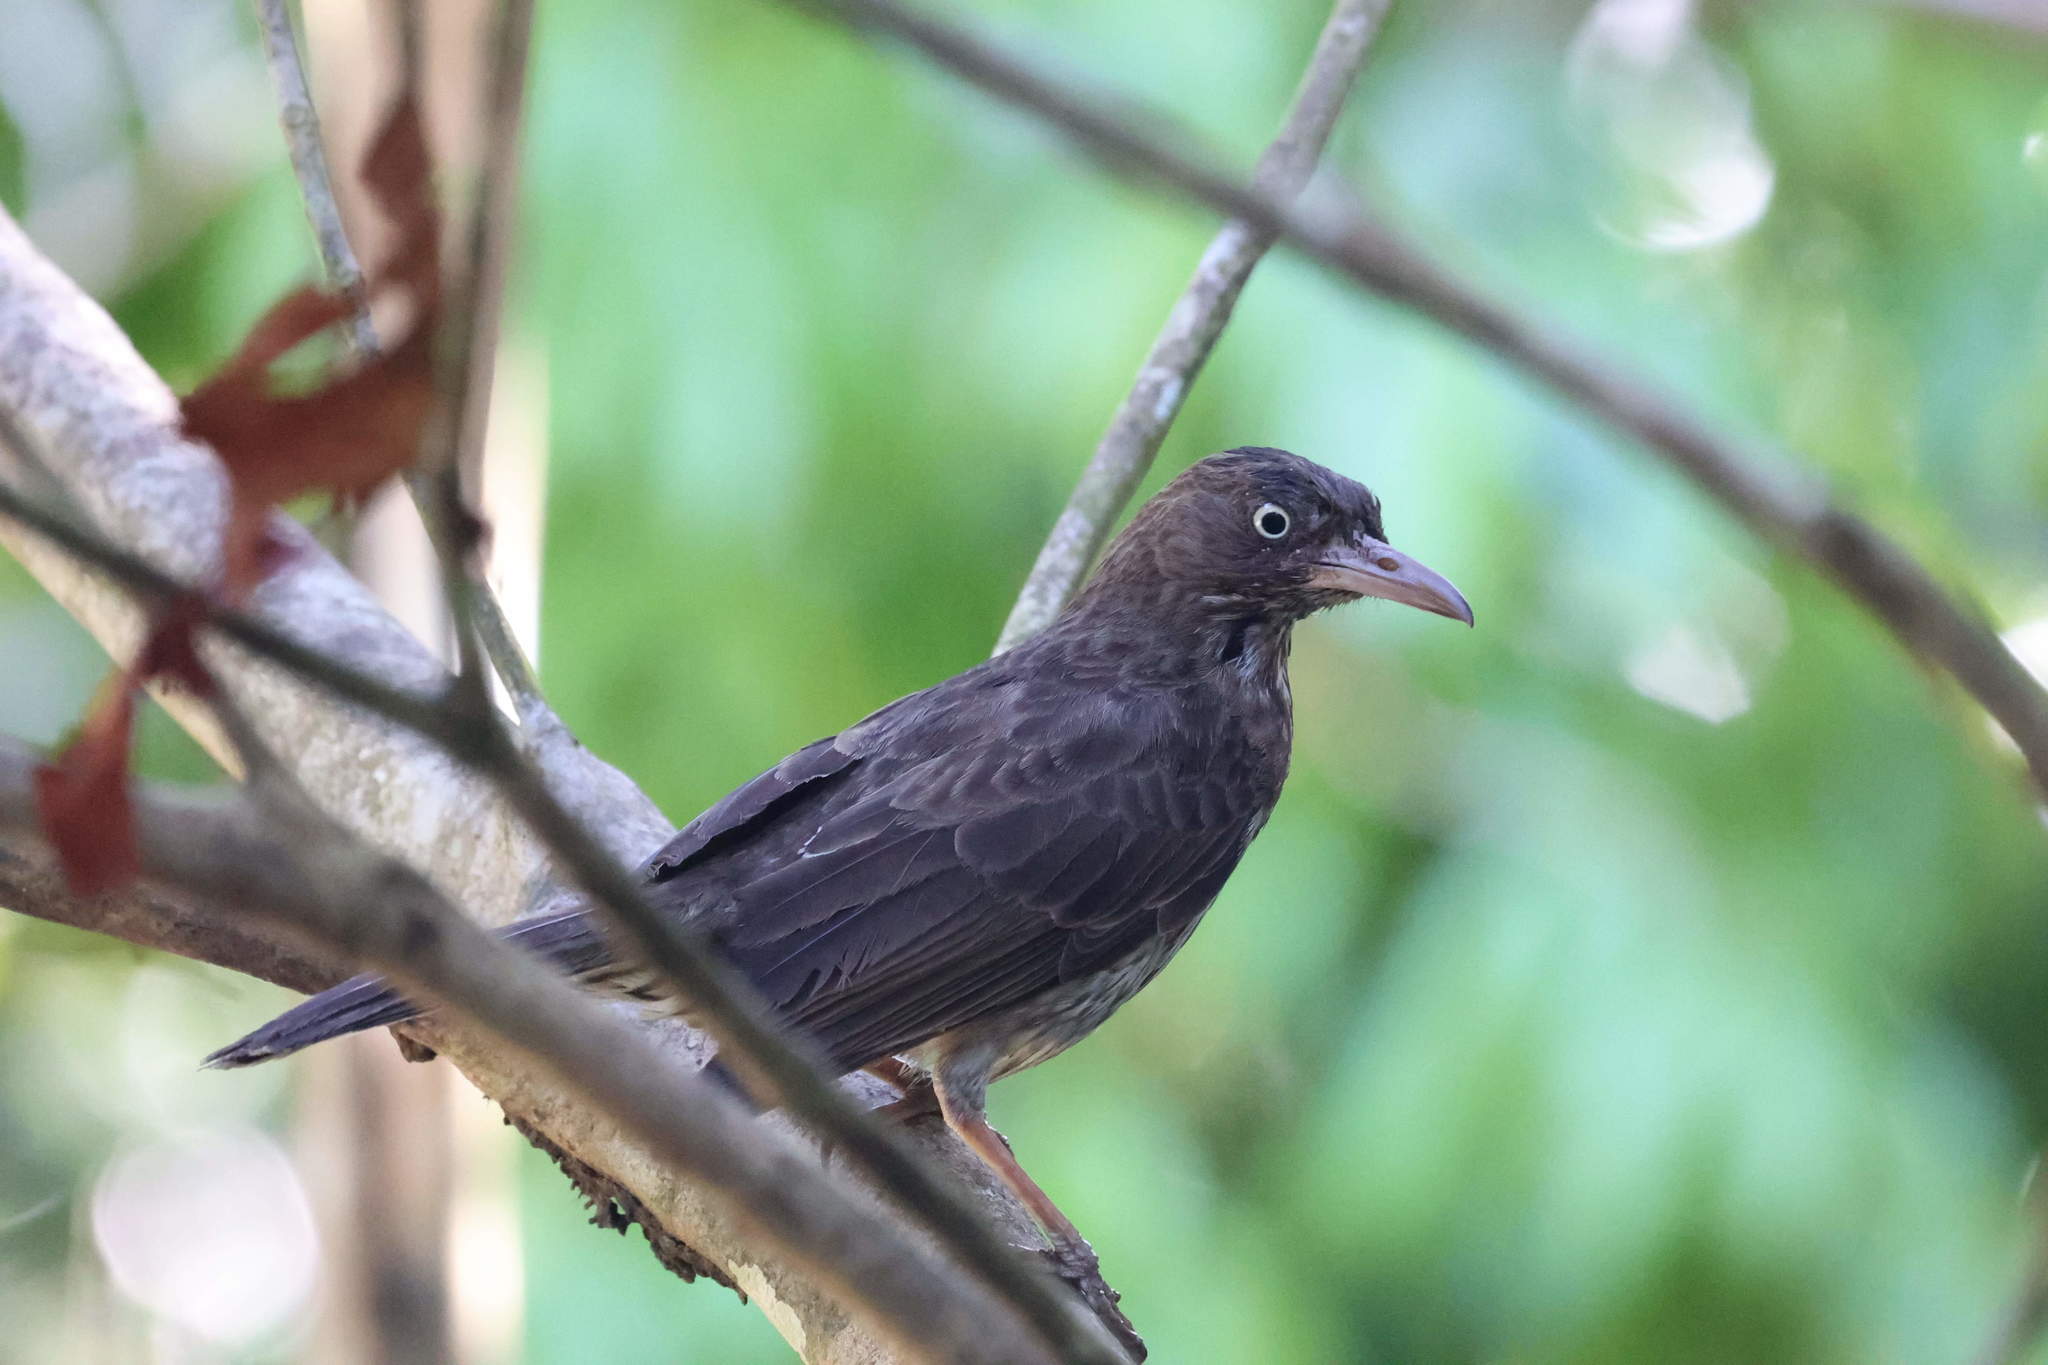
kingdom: Animalia
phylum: Chordata
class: Aves
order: Passeriformes
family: Mimidae
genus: Margarops
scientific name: Margarops fuscatus
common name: Pearly-eyed thrasher
